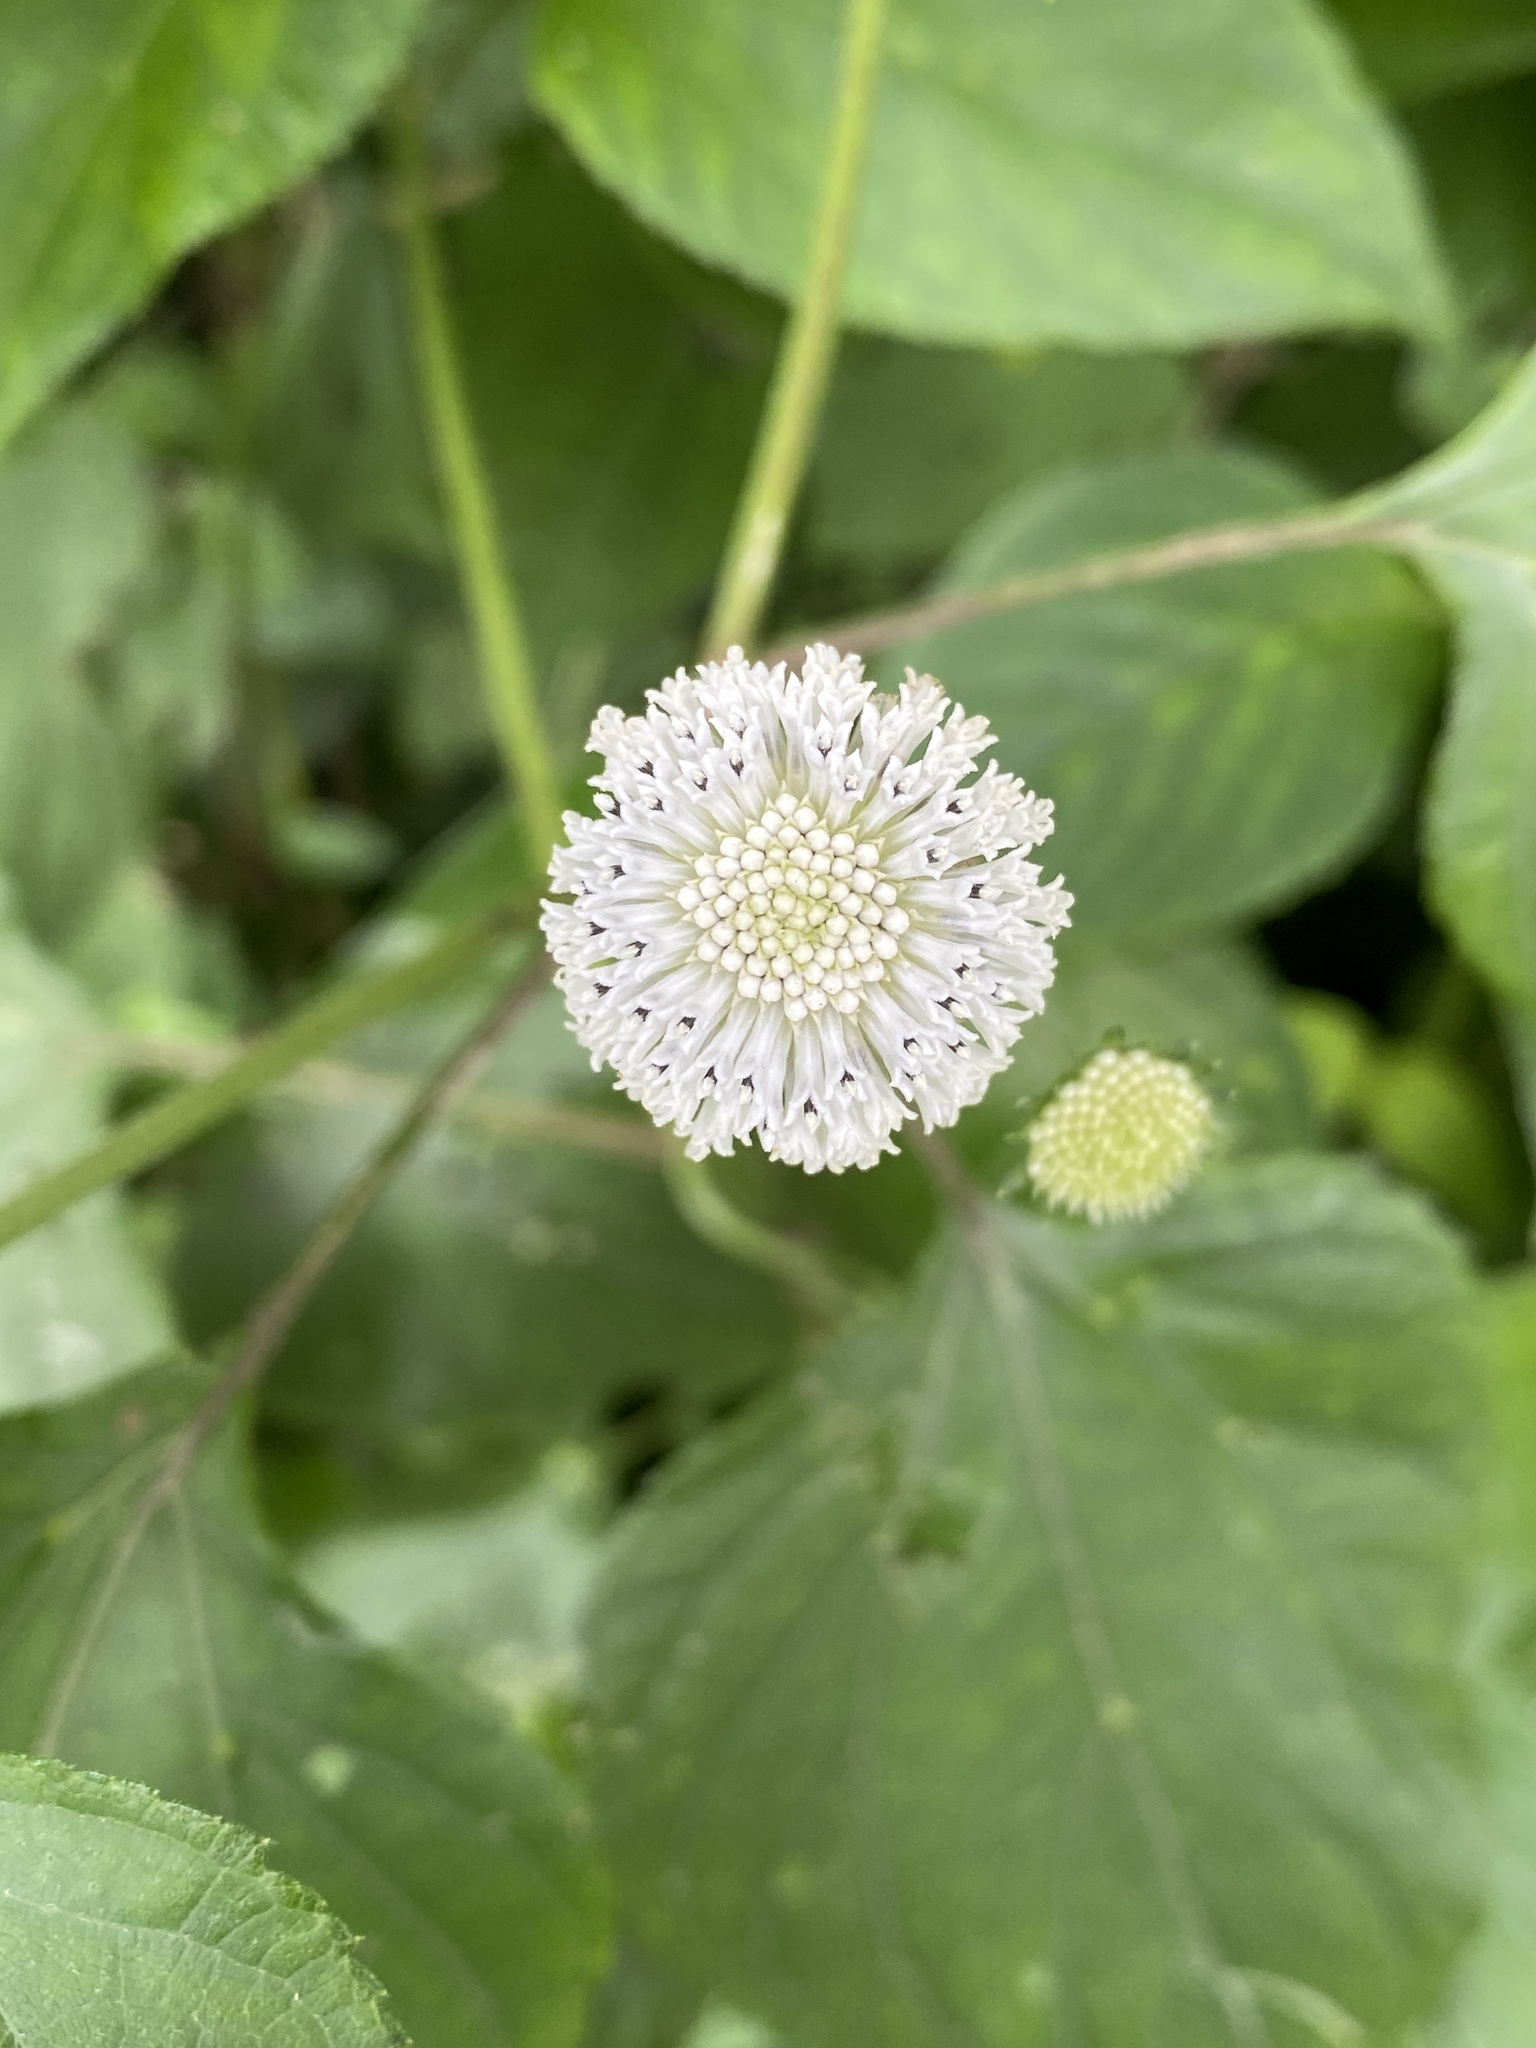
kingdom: Plantae
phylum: Tracheophyta
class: Magnoliopsida
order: Asterales
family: Asteraceae
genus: Melanthera
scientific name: Melanthera nivea
